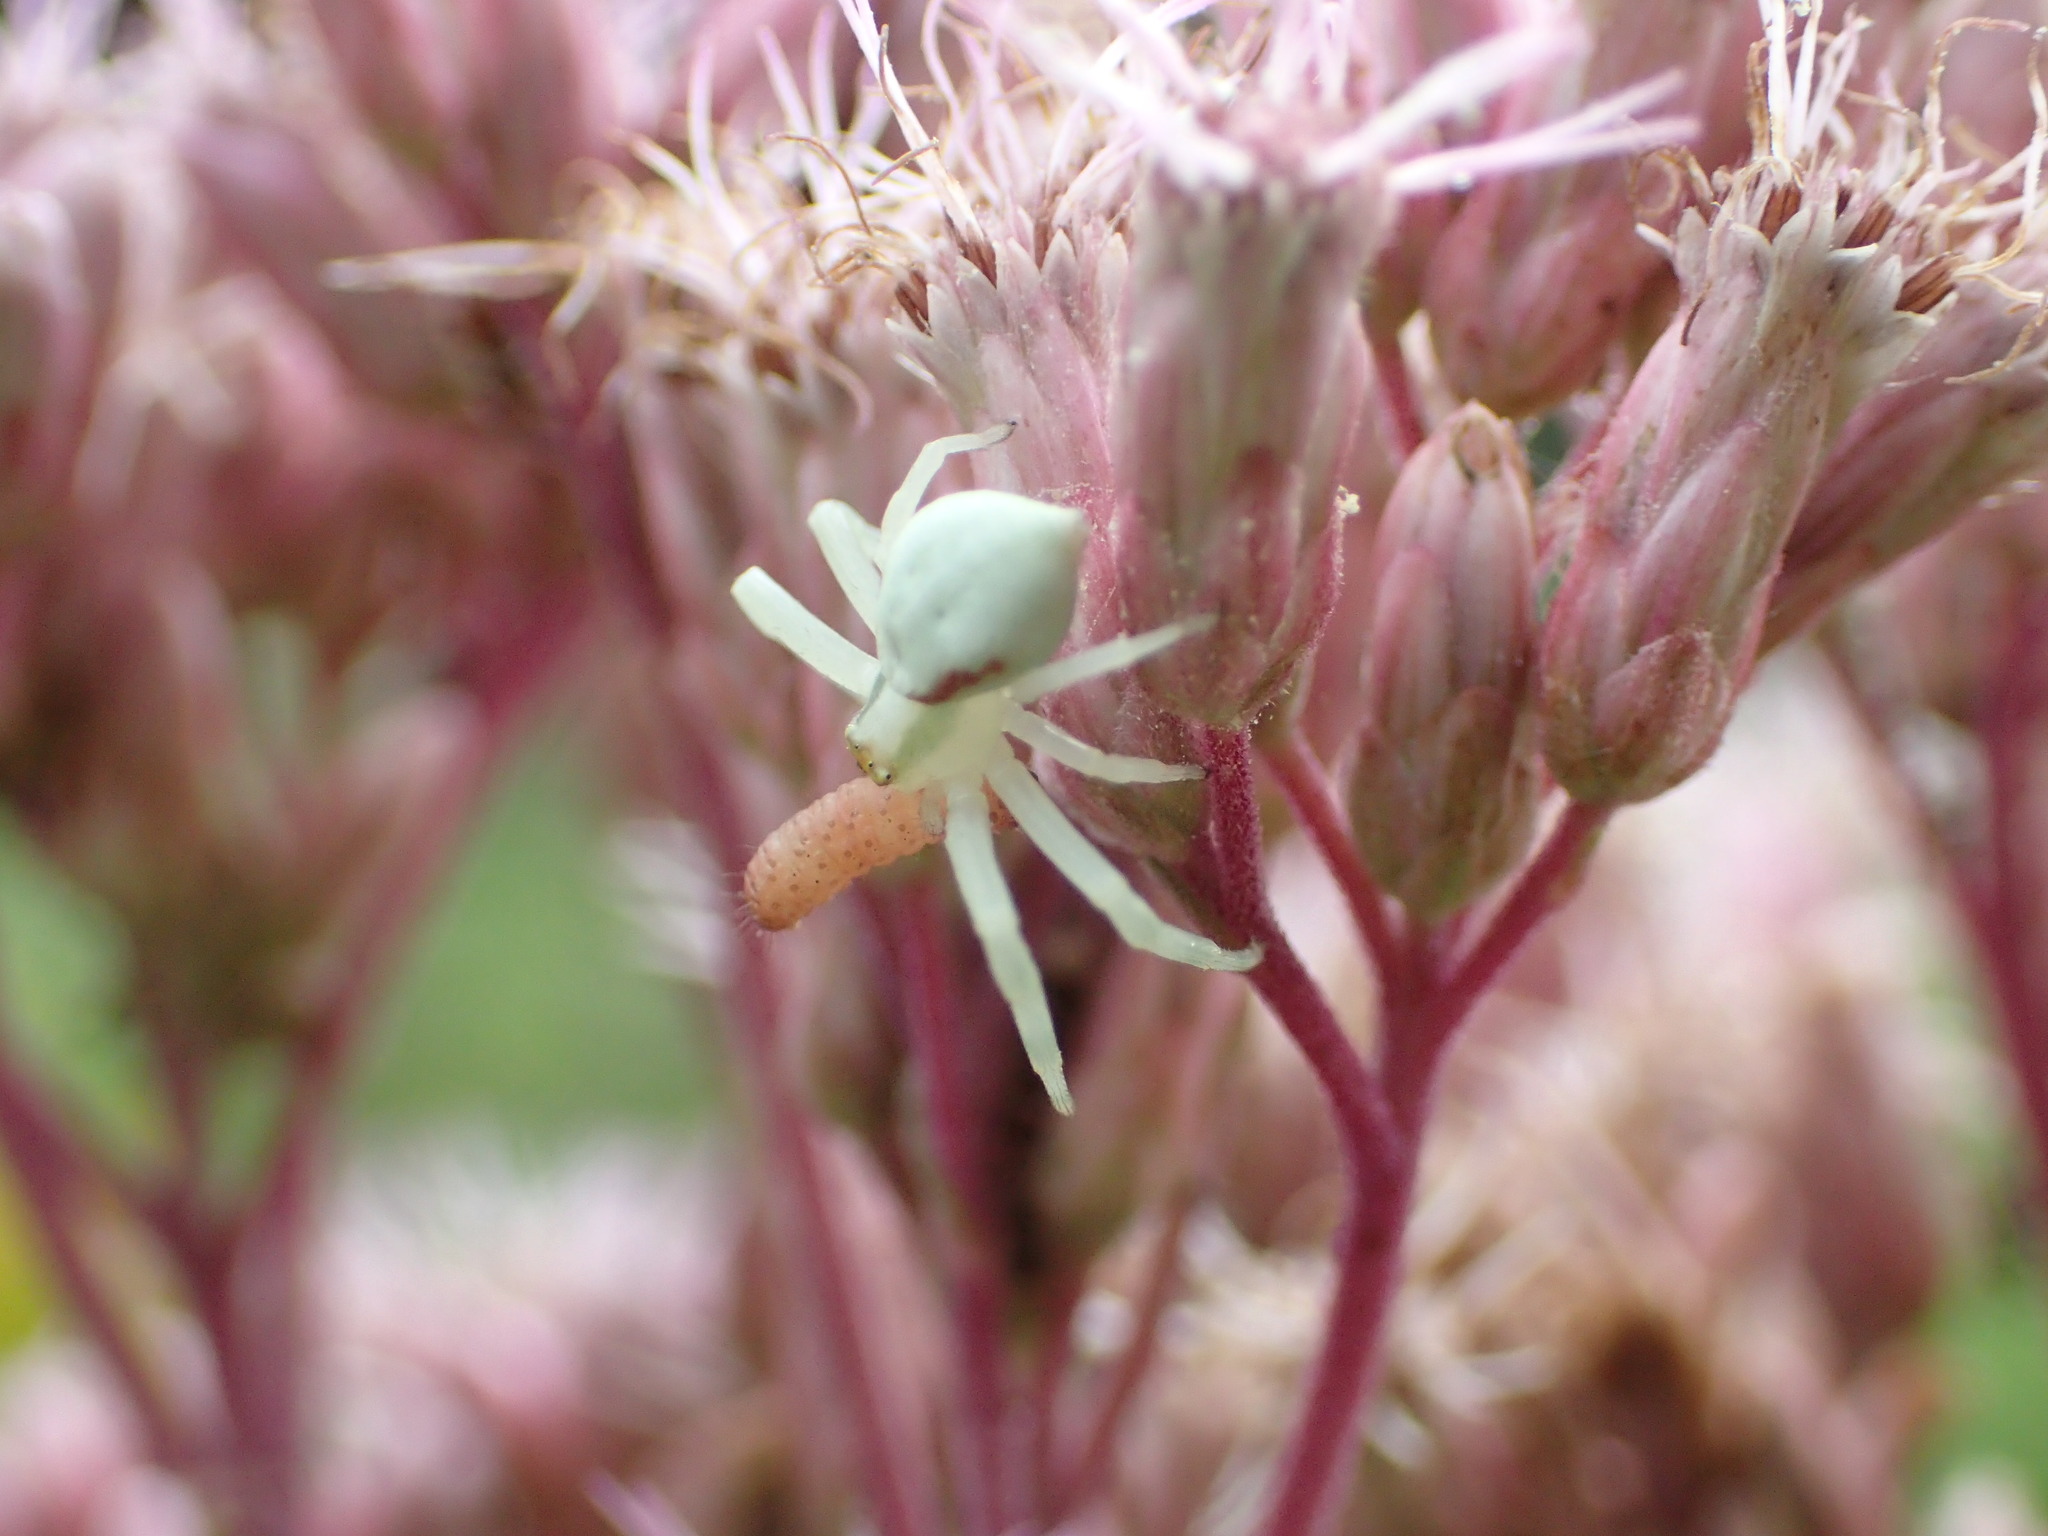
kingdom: Animalia
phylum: Arthropoda
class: Arachnida
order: Araneae
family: Thomisidae
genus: Misumena
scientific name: Misumena vatia
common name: Goldenrod crab spider
